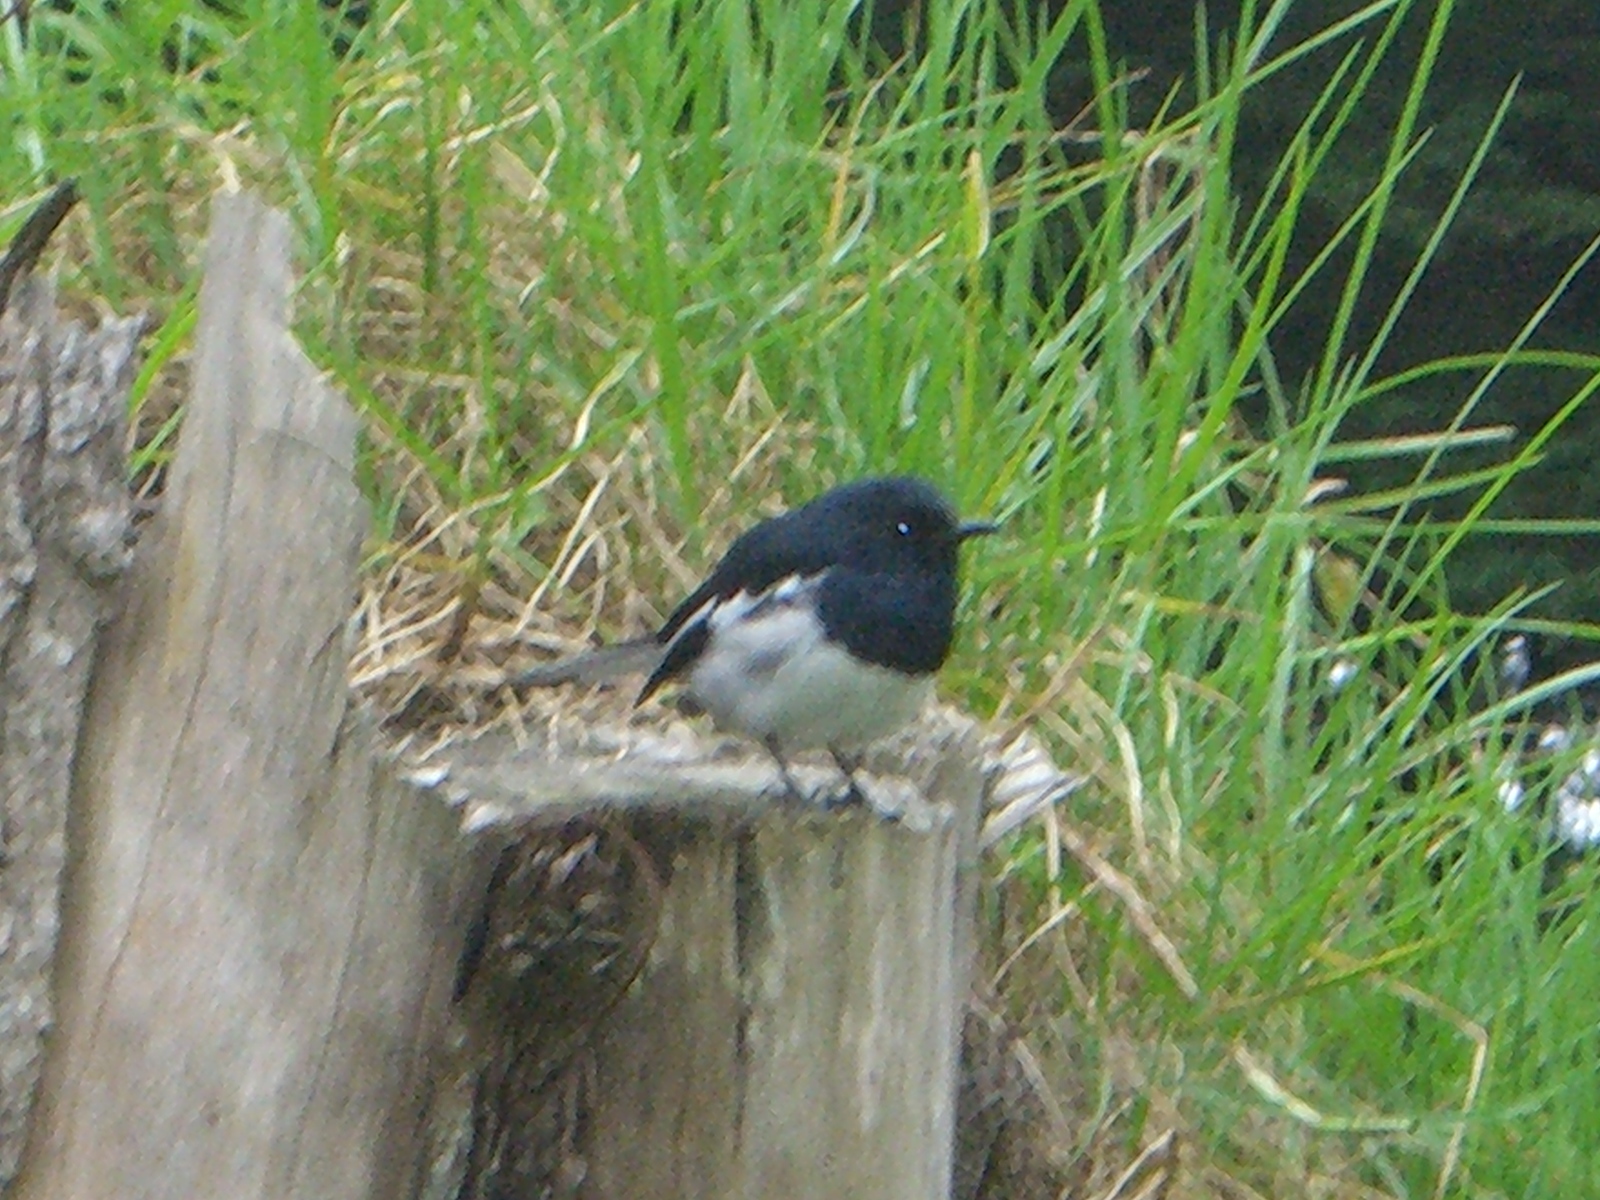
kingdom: Animalia
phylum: Chordata
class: Aves
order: Passeriformes
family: Muscicapidae
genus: Copsychus
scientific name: Copsychus saularis
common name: Oriental magpie-robin
